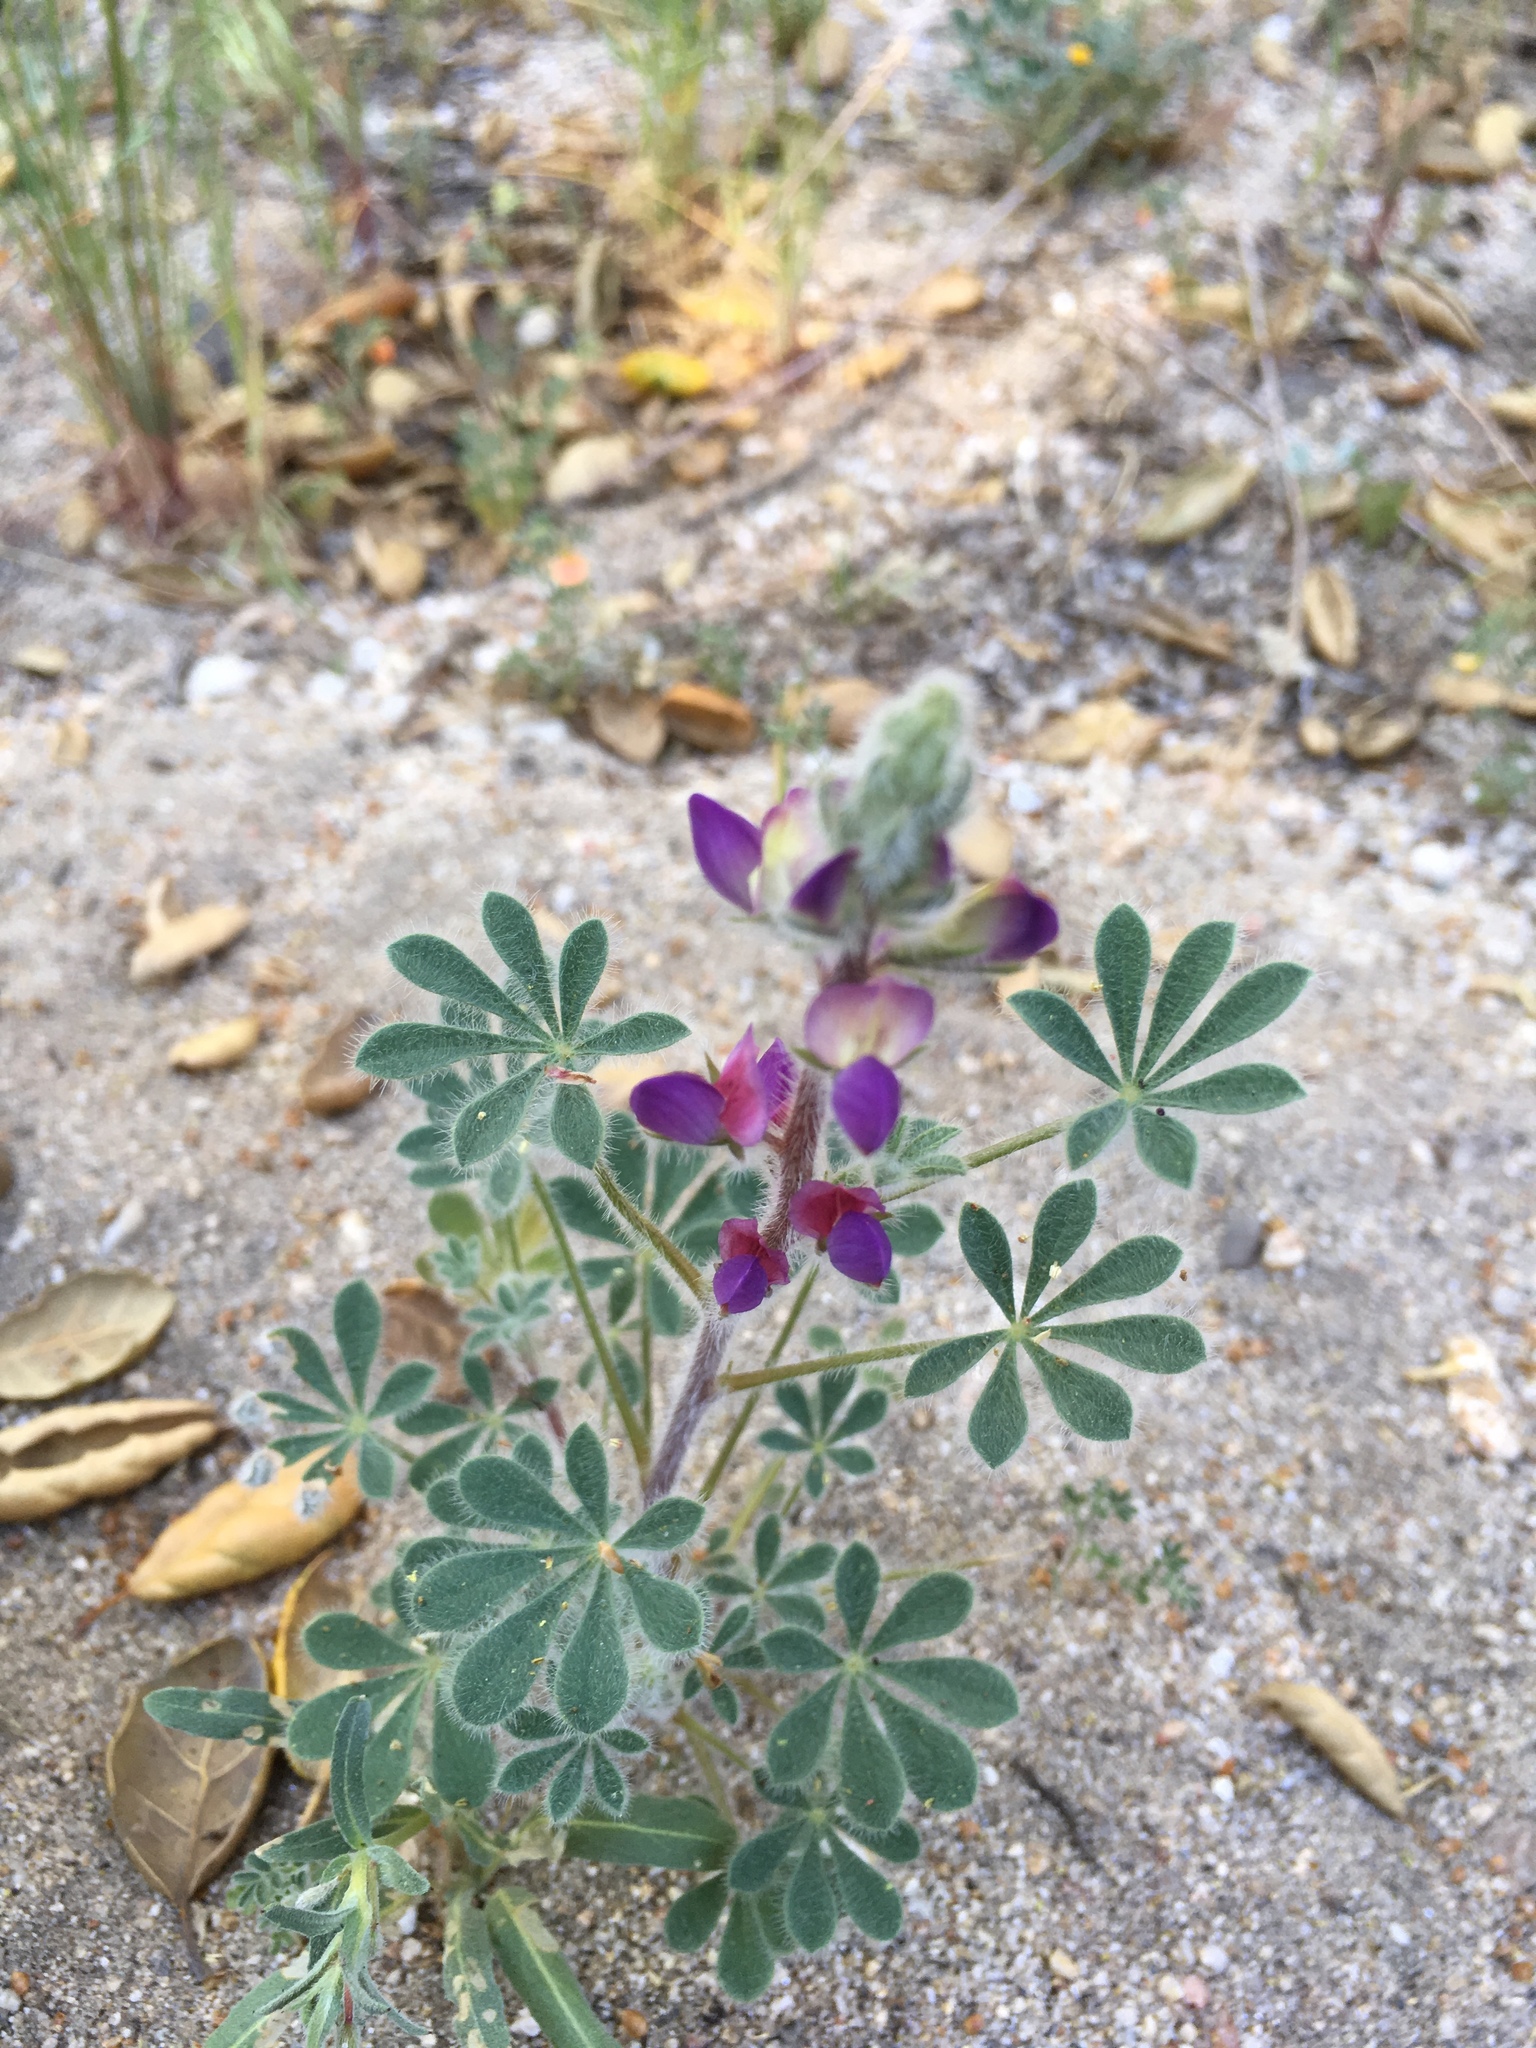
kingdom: Plantae
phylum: Tracheophyta
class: Magnoliopsida
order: Fabales
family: Fabaceae
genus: Lupinus
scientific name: Lupinus concinnus
